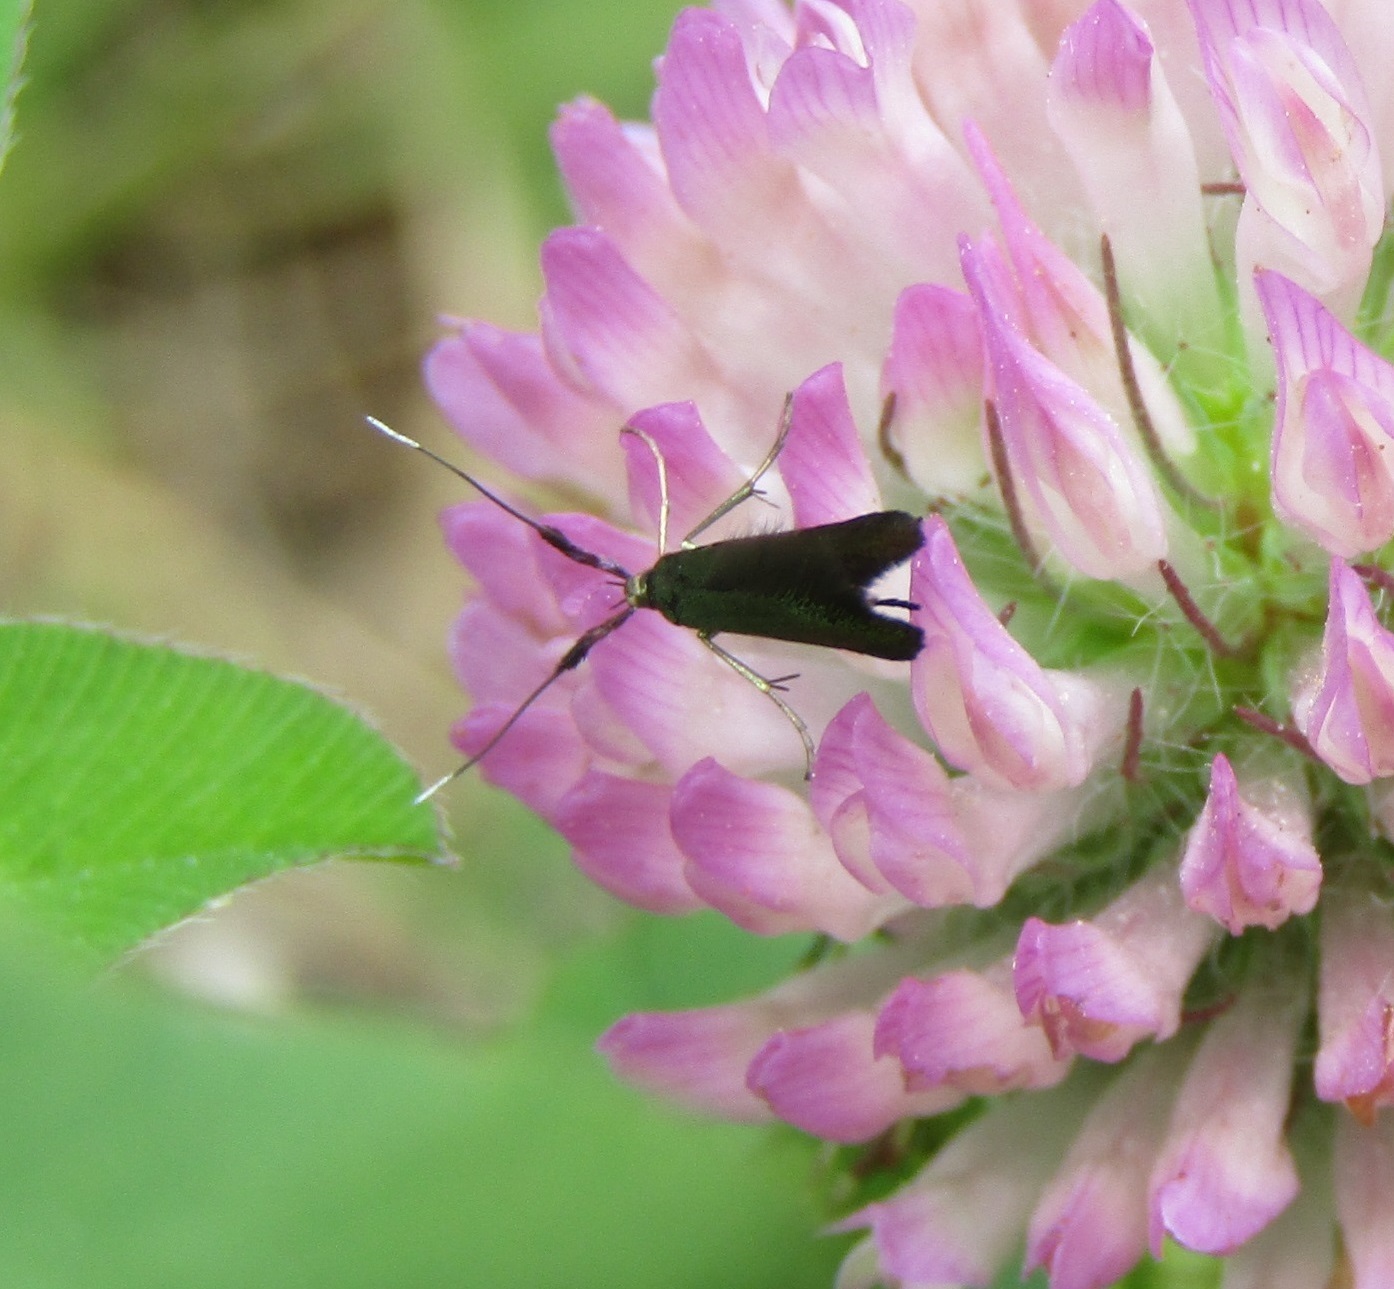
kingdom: Animalia
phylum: Arthropoda
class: Insecta
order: Lepidoptera
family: Coleophoridae
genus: Coleophora
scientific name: Coleophora deauratella
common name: Red-clover case-bearer
